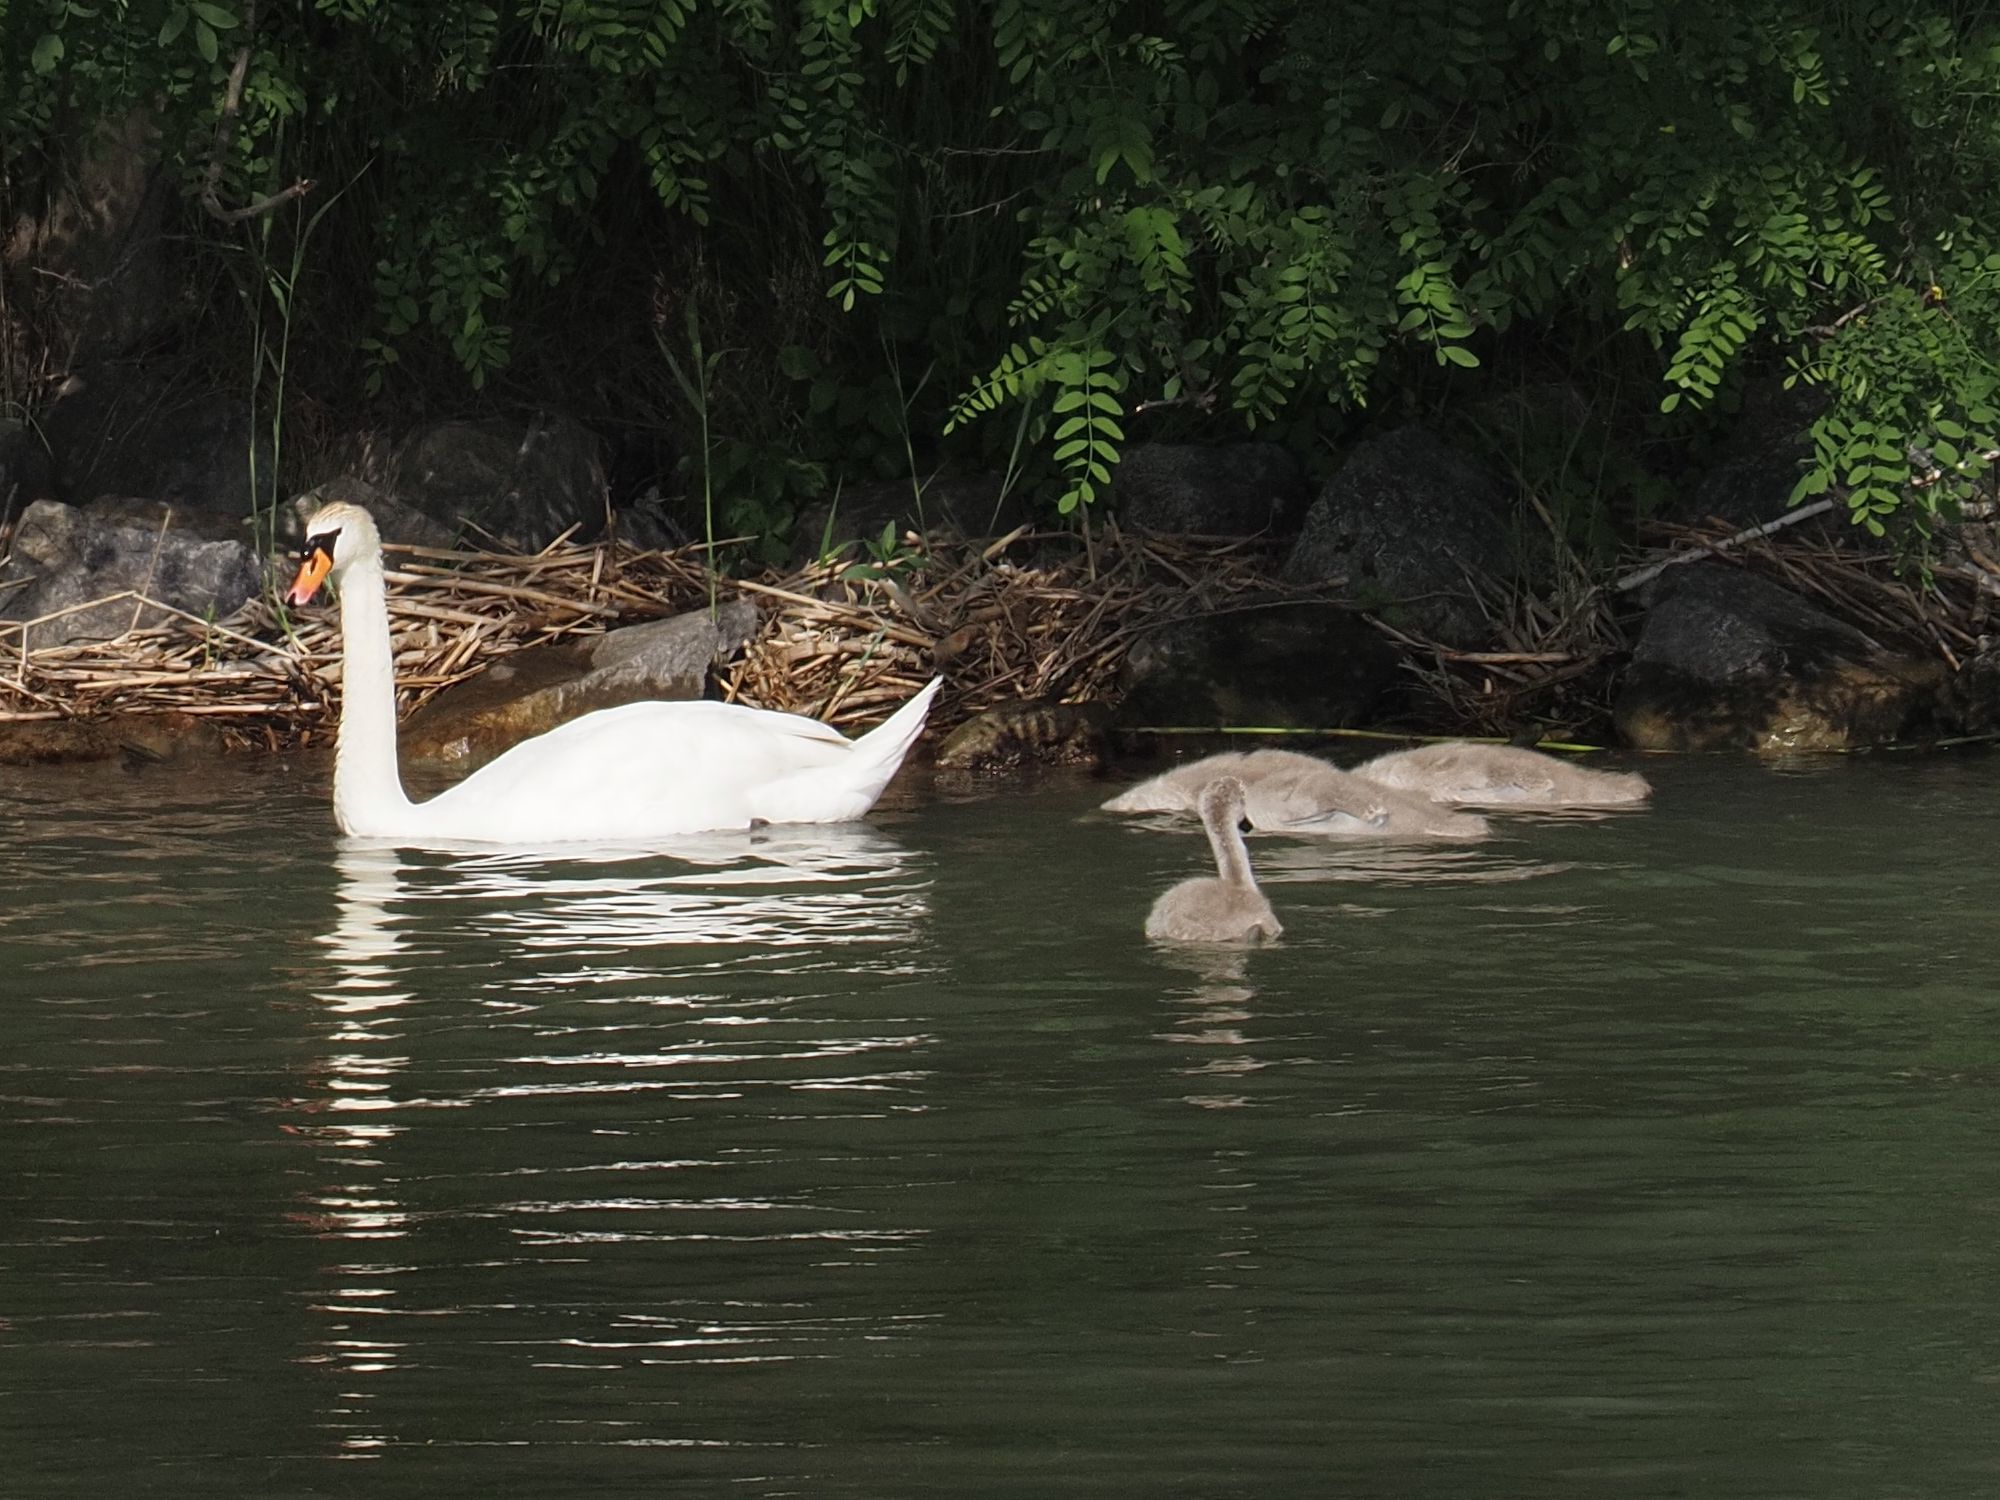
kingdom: Animalia
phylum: Chordata
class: Aves
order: Anseriformes
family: Anatidae
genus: Cygnus
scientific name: Cygnus olor
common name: Mute swan
